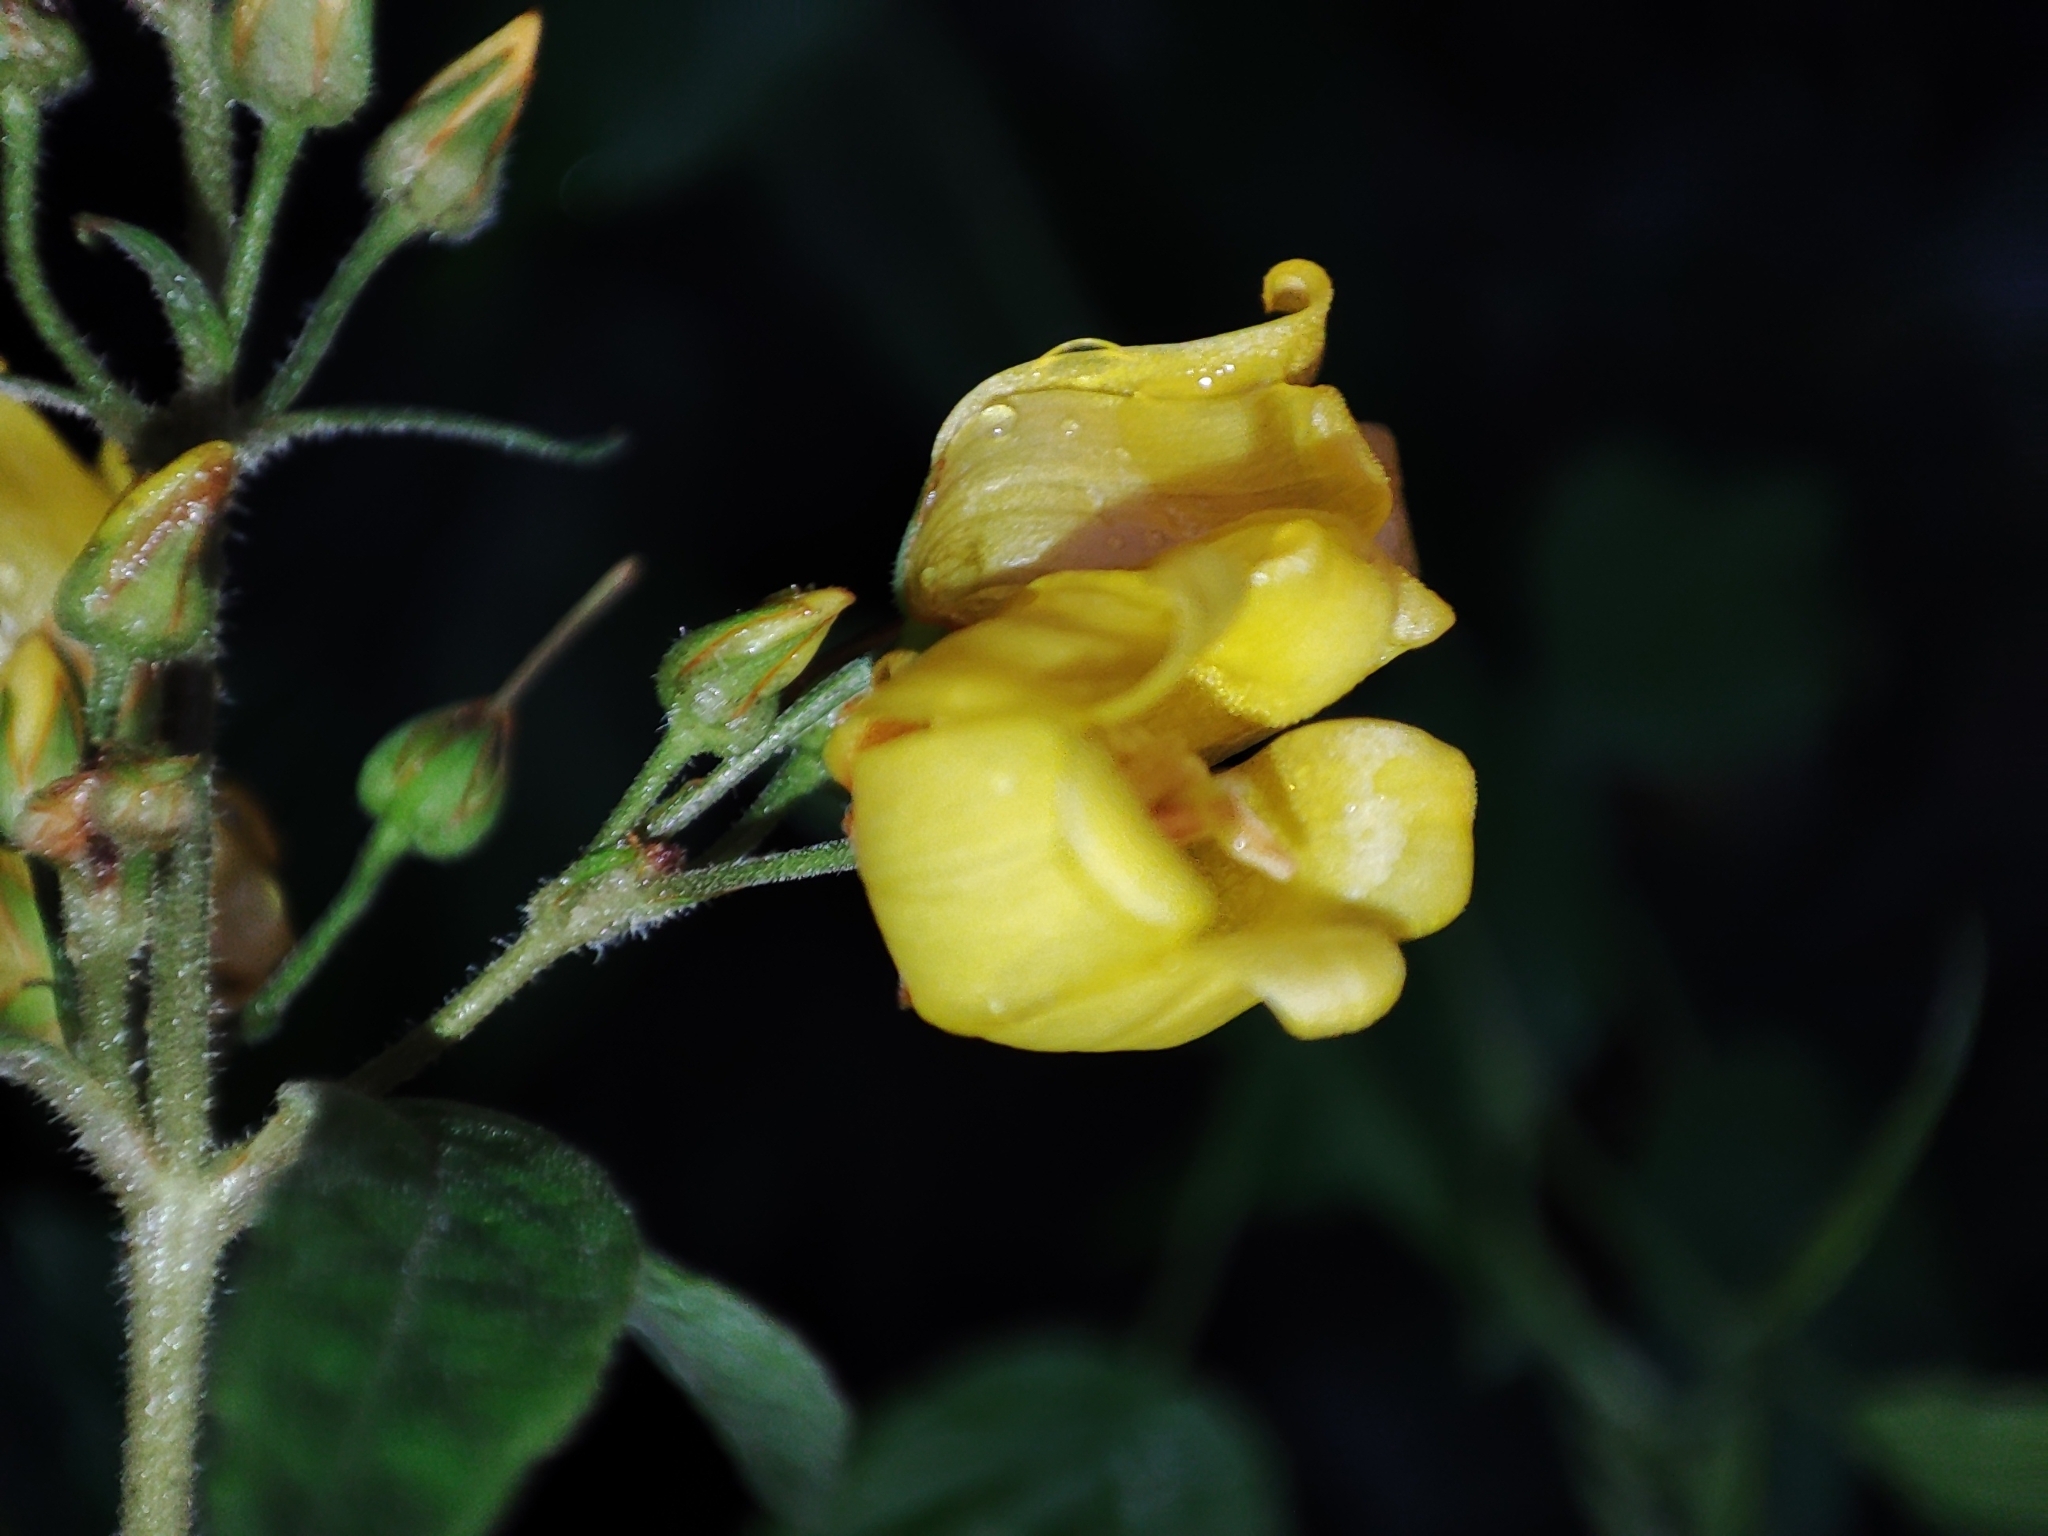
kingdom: Plantae
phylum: Tracheophyta
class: Magnoliopsida
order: Ericales
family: Primulaceae
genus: Lysimachia
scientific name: Lysimachia vulgaris
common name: Yellow loosestrife
